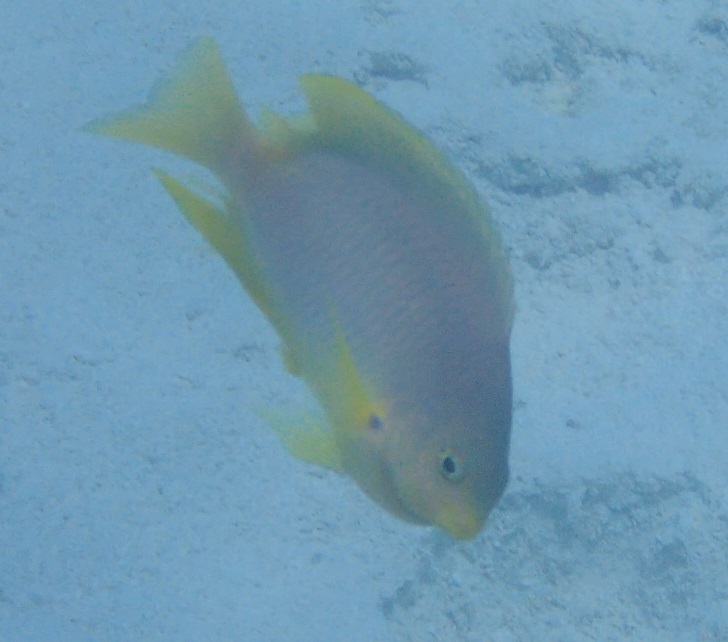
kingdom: Animalia
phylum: Chordata
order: Perciformes
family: Pomacentridae
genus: Pomacentrus
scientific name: Pomacentrus amboinensis
